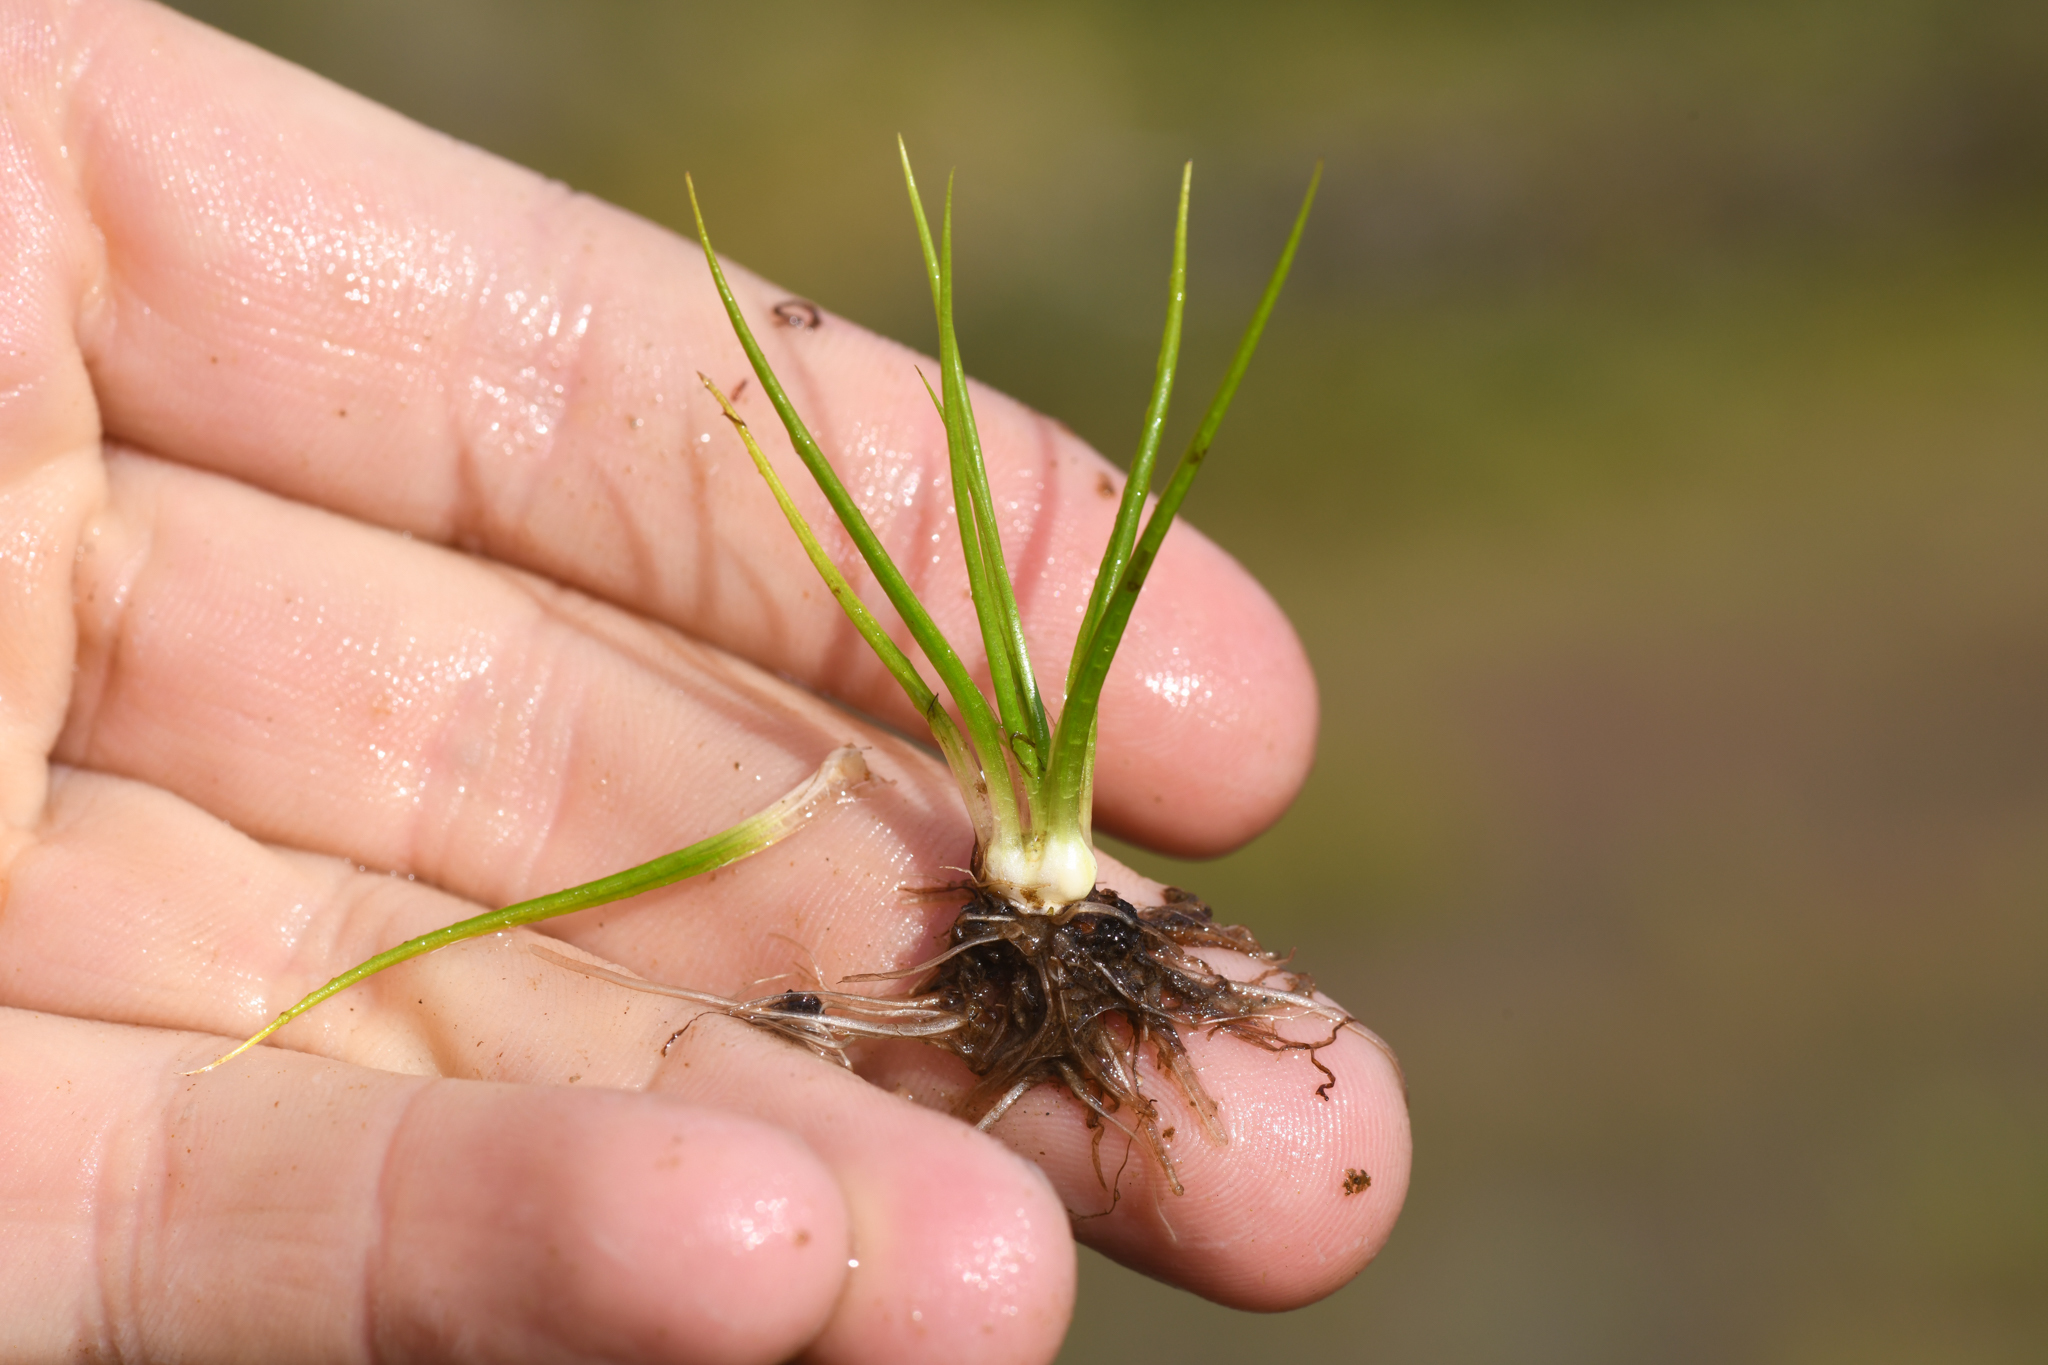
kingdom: Plantae
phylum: Tracheophyta
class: Lycopodiopsida
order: Isoetales
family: Isoetaceae
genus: Isoetes
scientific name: Isoetes bolanderi
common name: Bolander's quillwort
